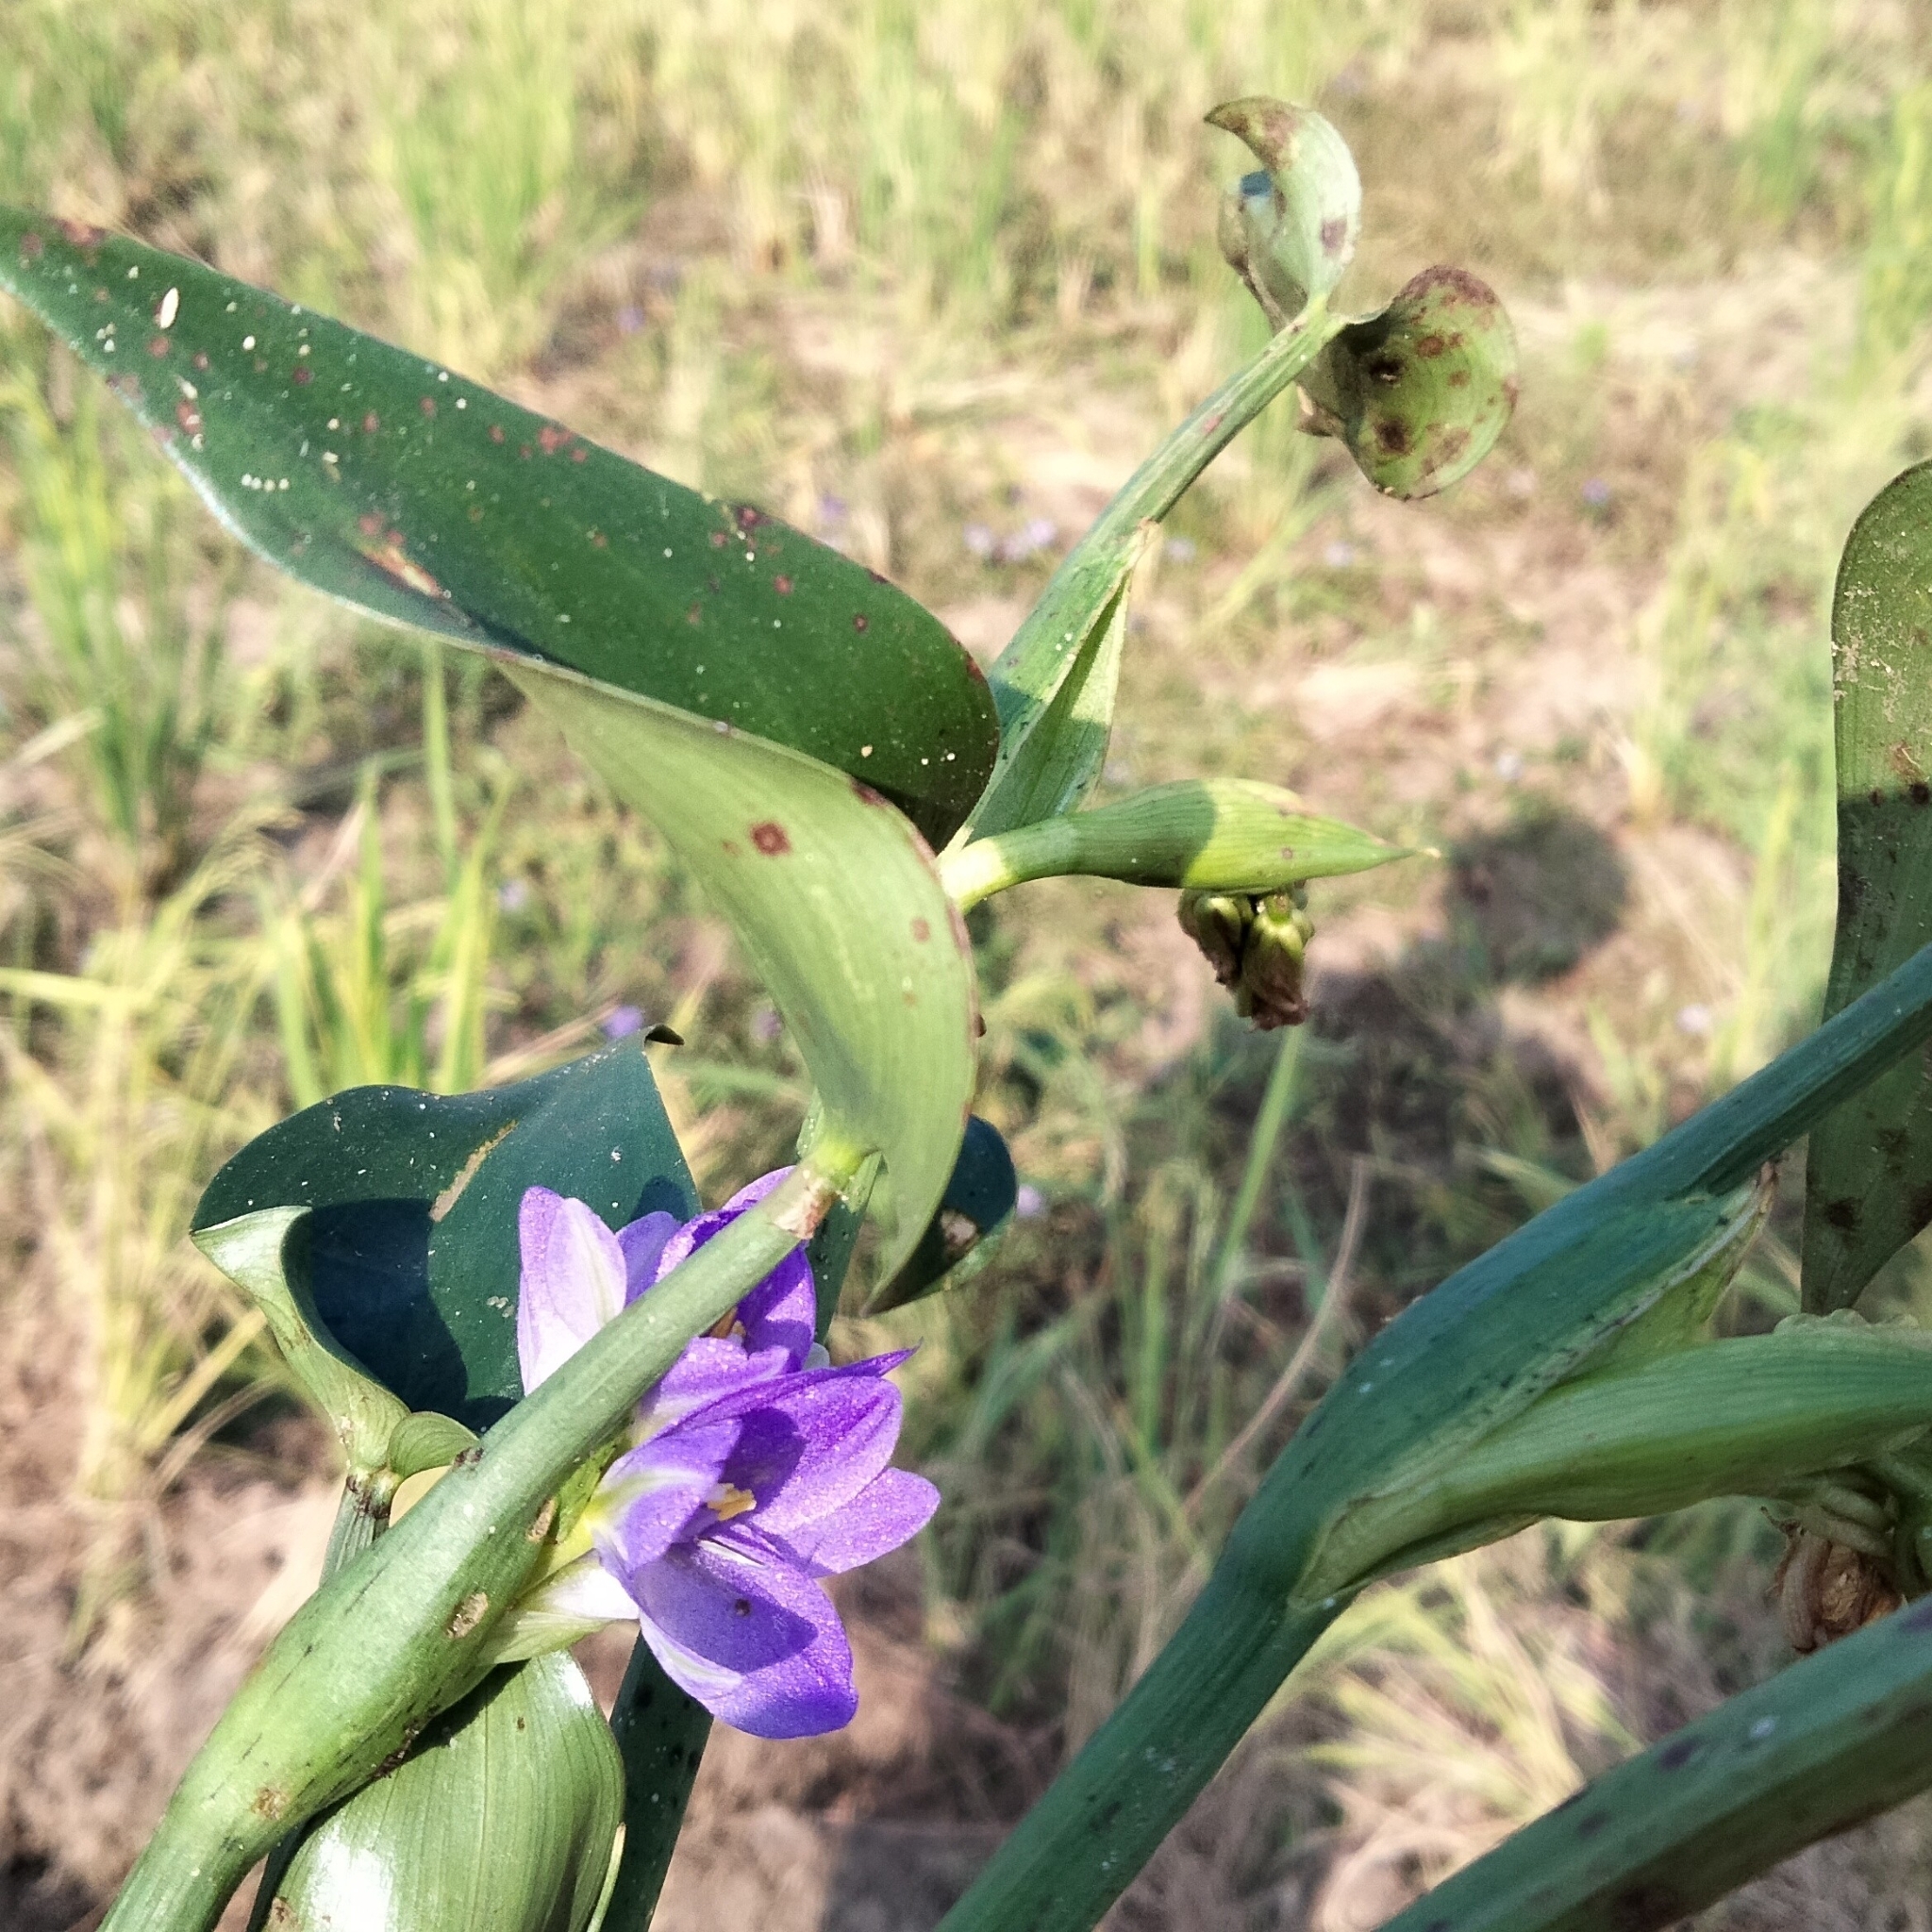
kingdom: Plantae
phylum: Tracheophyta
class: Liliopsida
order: Commelinales
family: Pontederiaceae
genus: Pontederia
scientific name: Pontederia hastata
